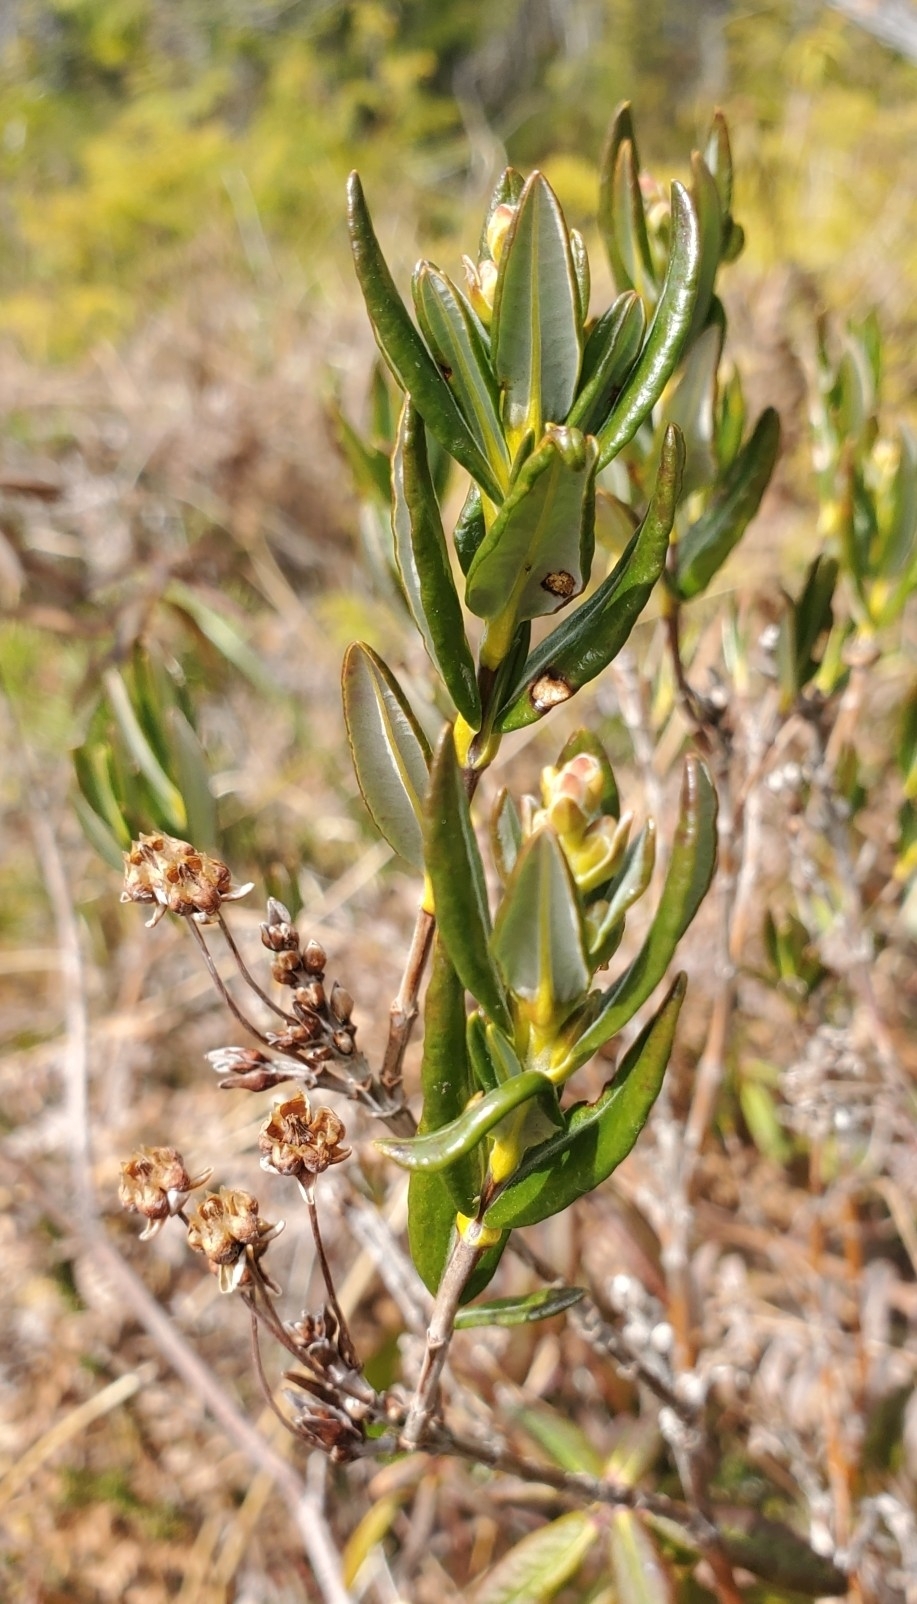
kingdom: Plantae
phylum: Tracheophyta
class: Magnoliopsida
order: Ericales
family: Ericaceae
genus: Kalmia
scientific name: Kalmia microphylla
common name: Alpine bog laurel
